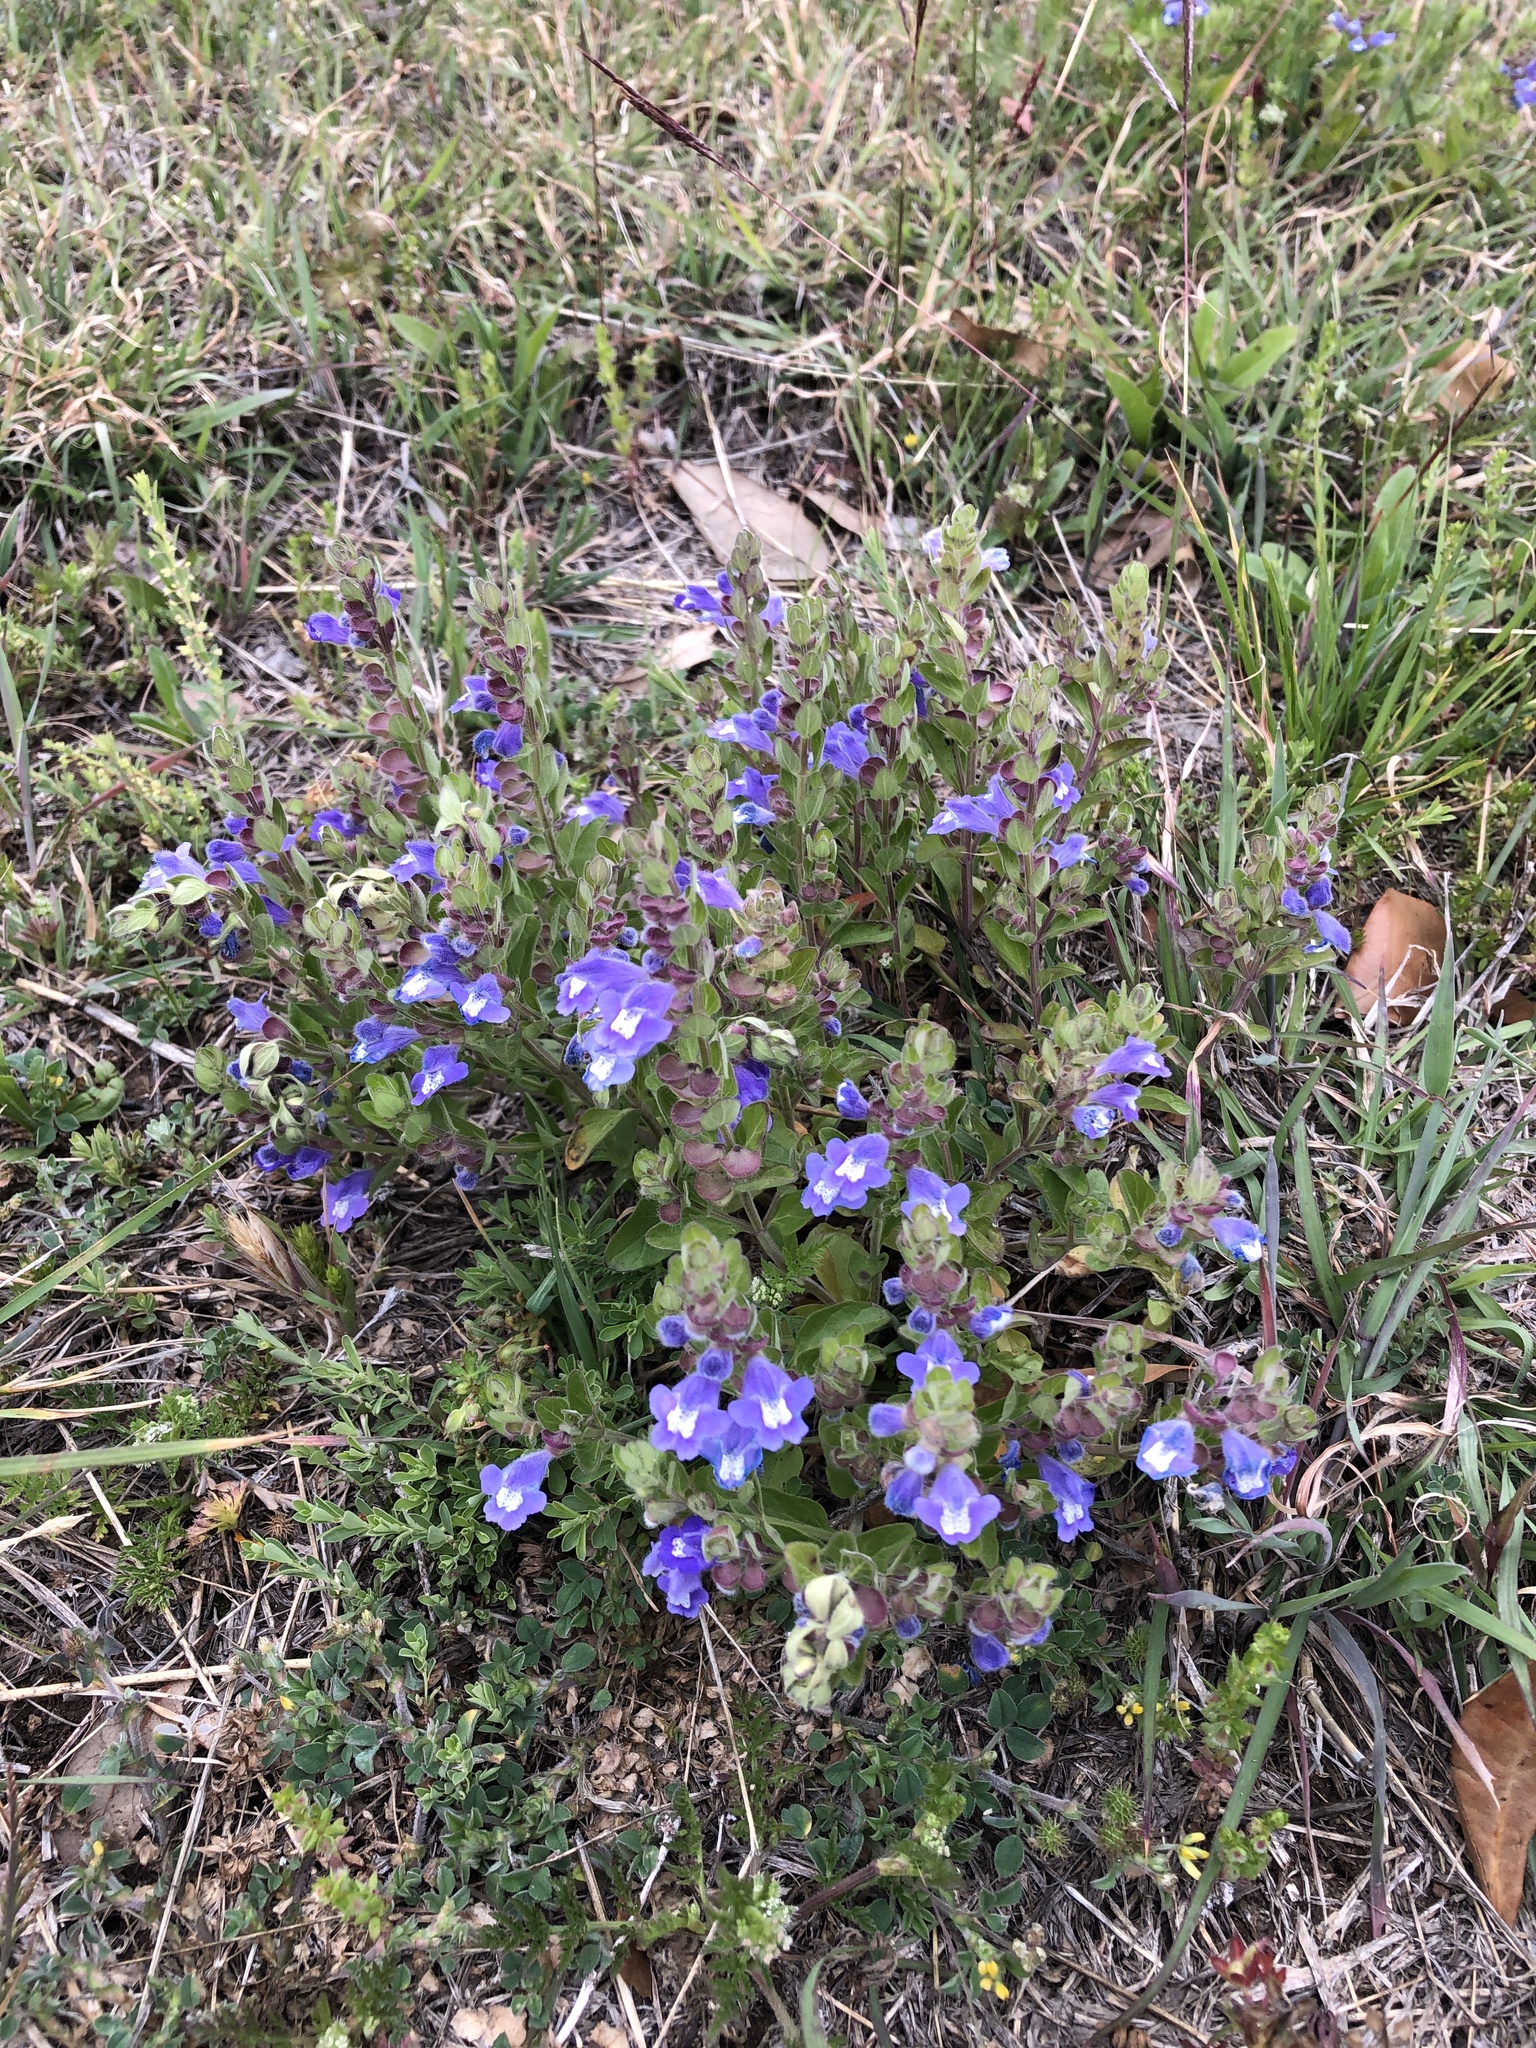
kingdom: Plantae
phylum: Tracheophyta
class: Magnoliopsida
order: Lamiales
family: Lamiaceae
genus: Scutellaria
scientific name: Scutellaria drummondii
